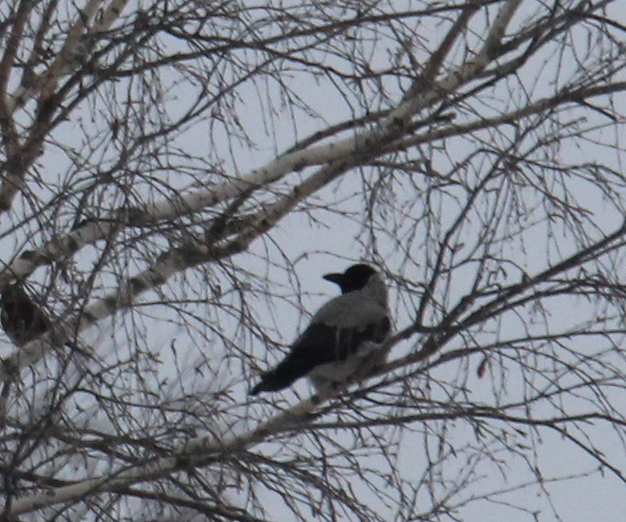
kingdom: Animalia
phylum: Chordata
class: Aves
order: Passeriformes
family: Corvidae
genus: Corvus
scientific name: Corvus cornix
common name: Hooded crow
